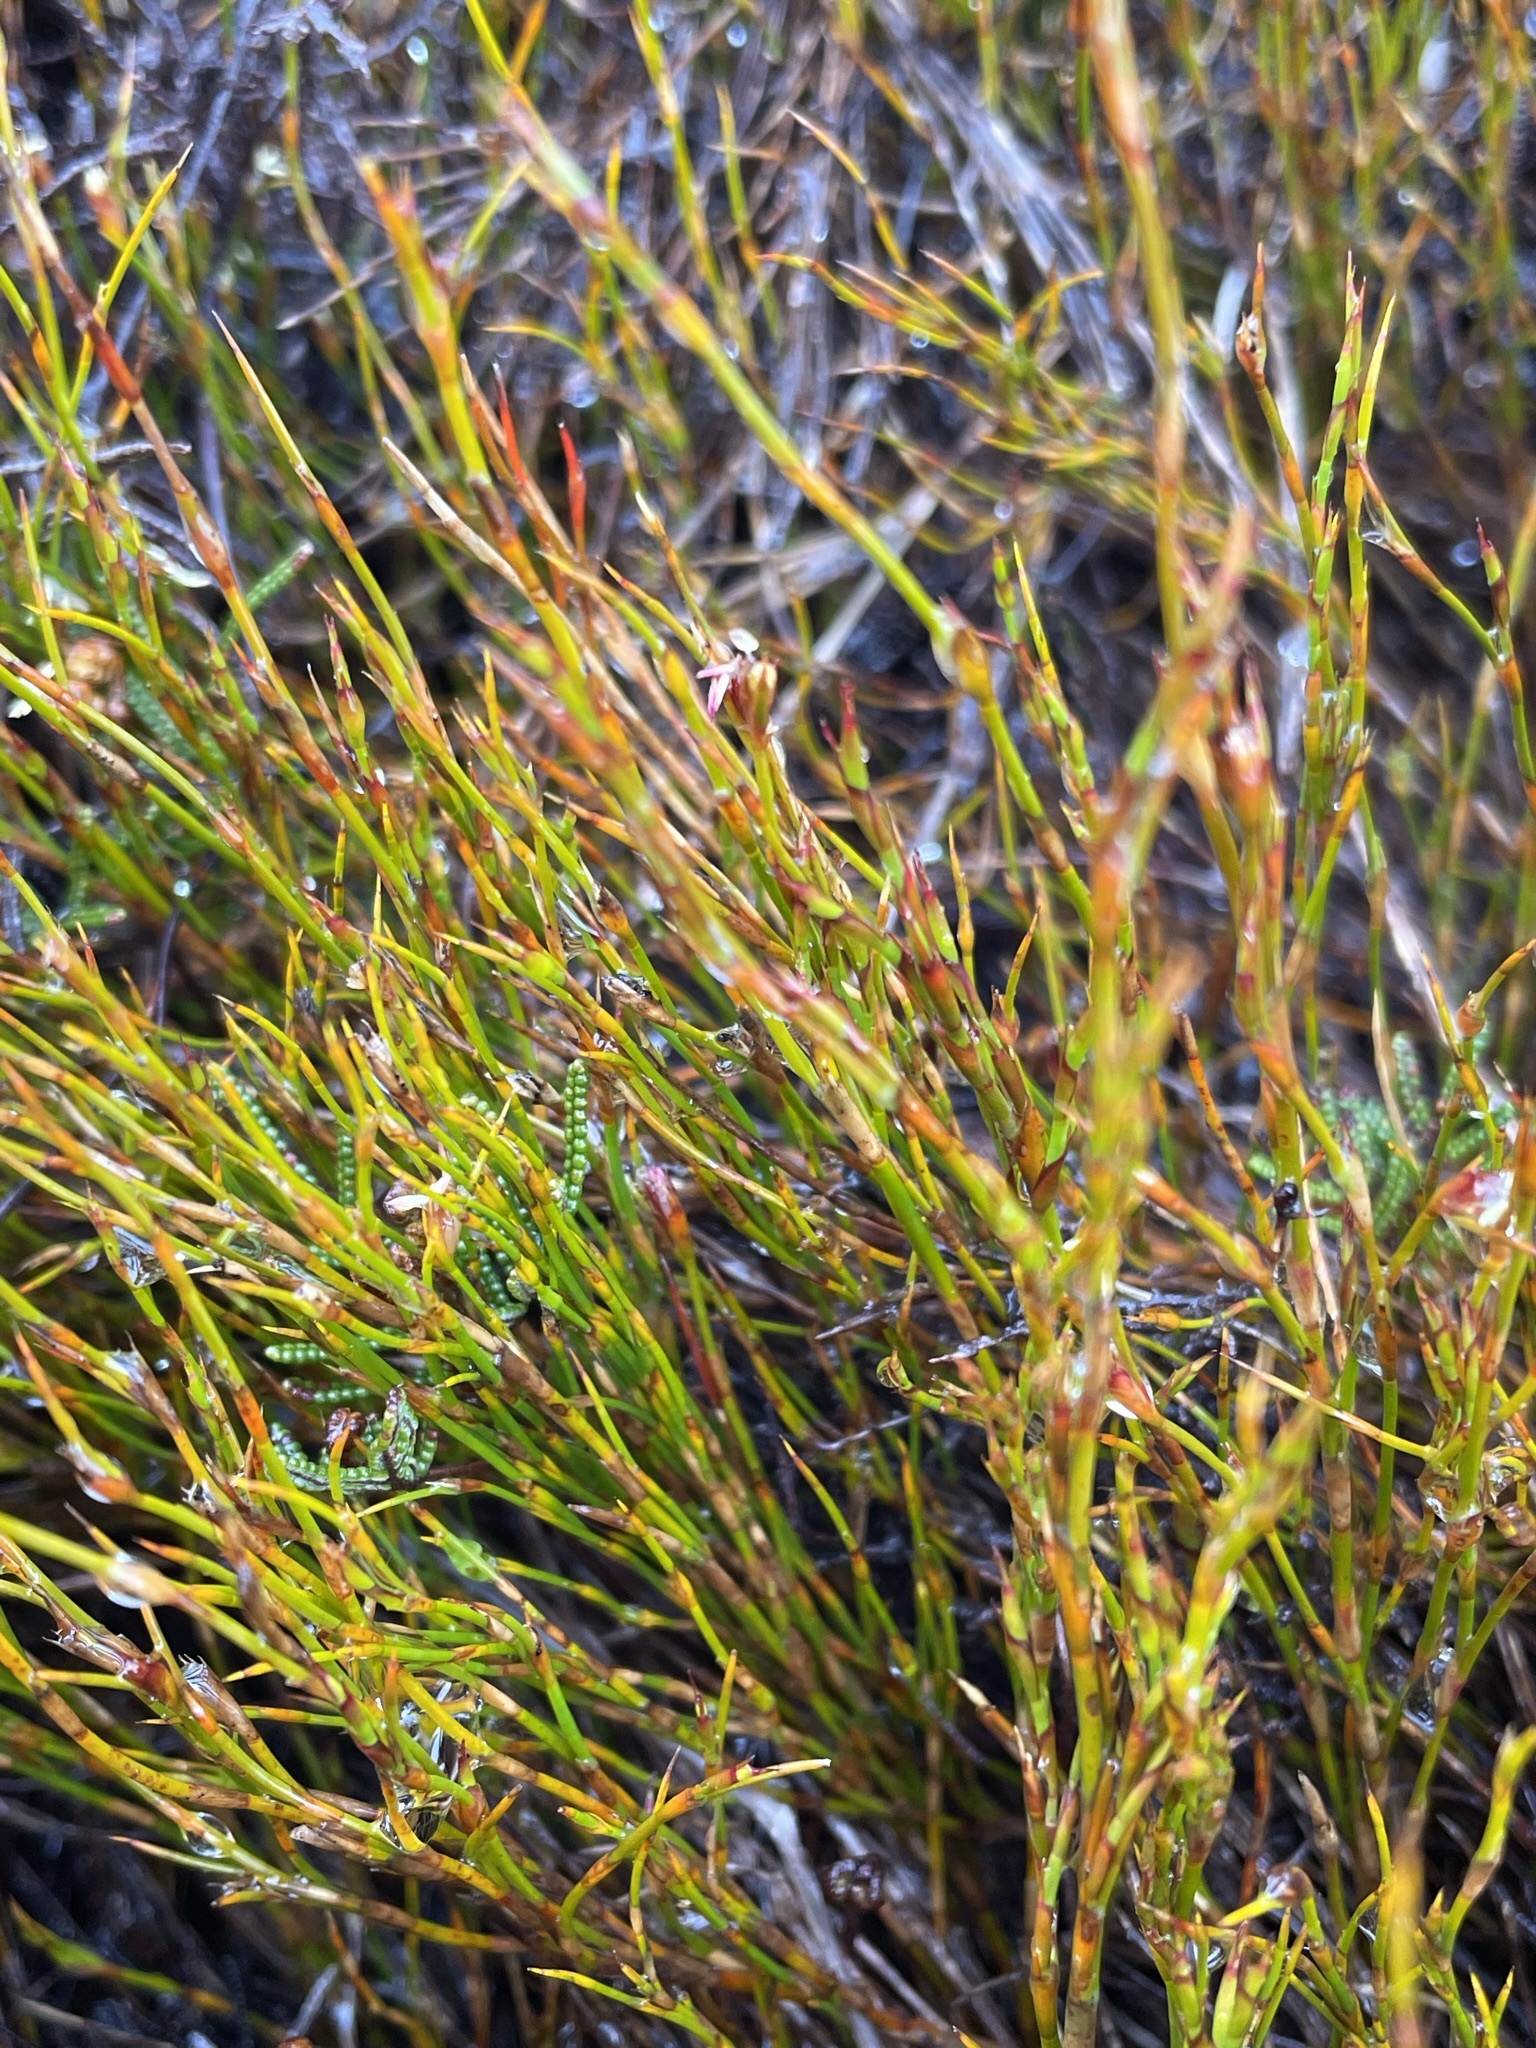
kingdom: Plantae
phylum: Tracheophyta
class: Liliopsida
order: Poales
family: Restionaceae
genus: Empodisma
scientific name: Empodisma minus
